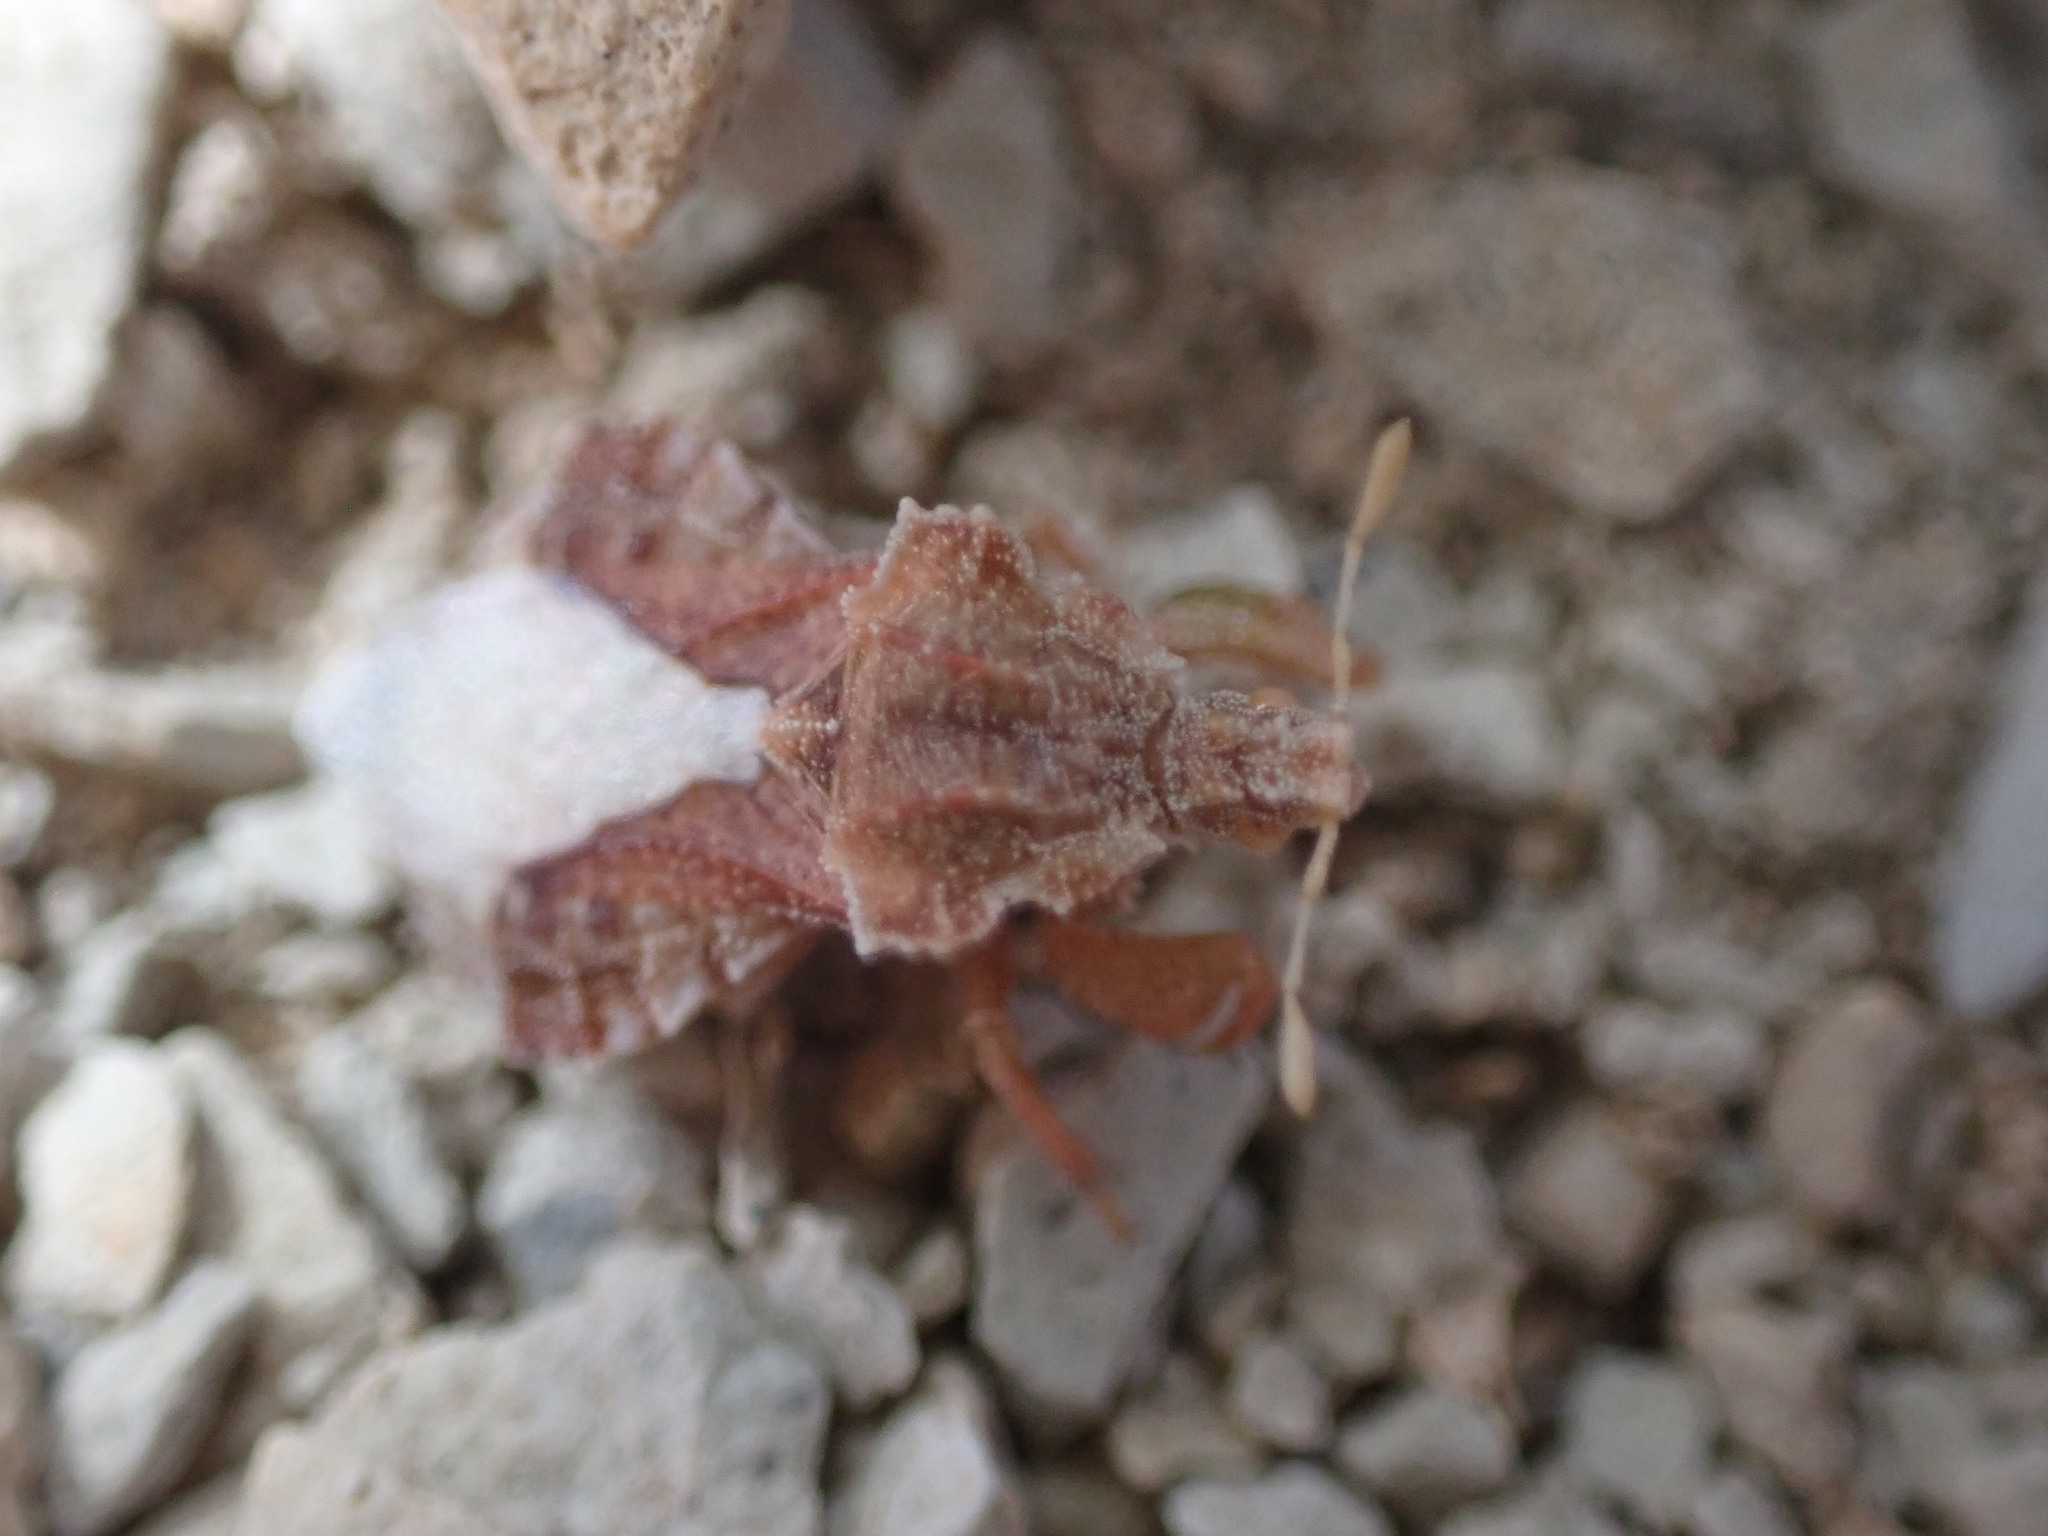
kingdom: Animalia
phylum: Arthropoda
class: Insecta
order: Hemiptera
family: Reduviidae
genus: Phymata
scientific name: Phymata maculata
